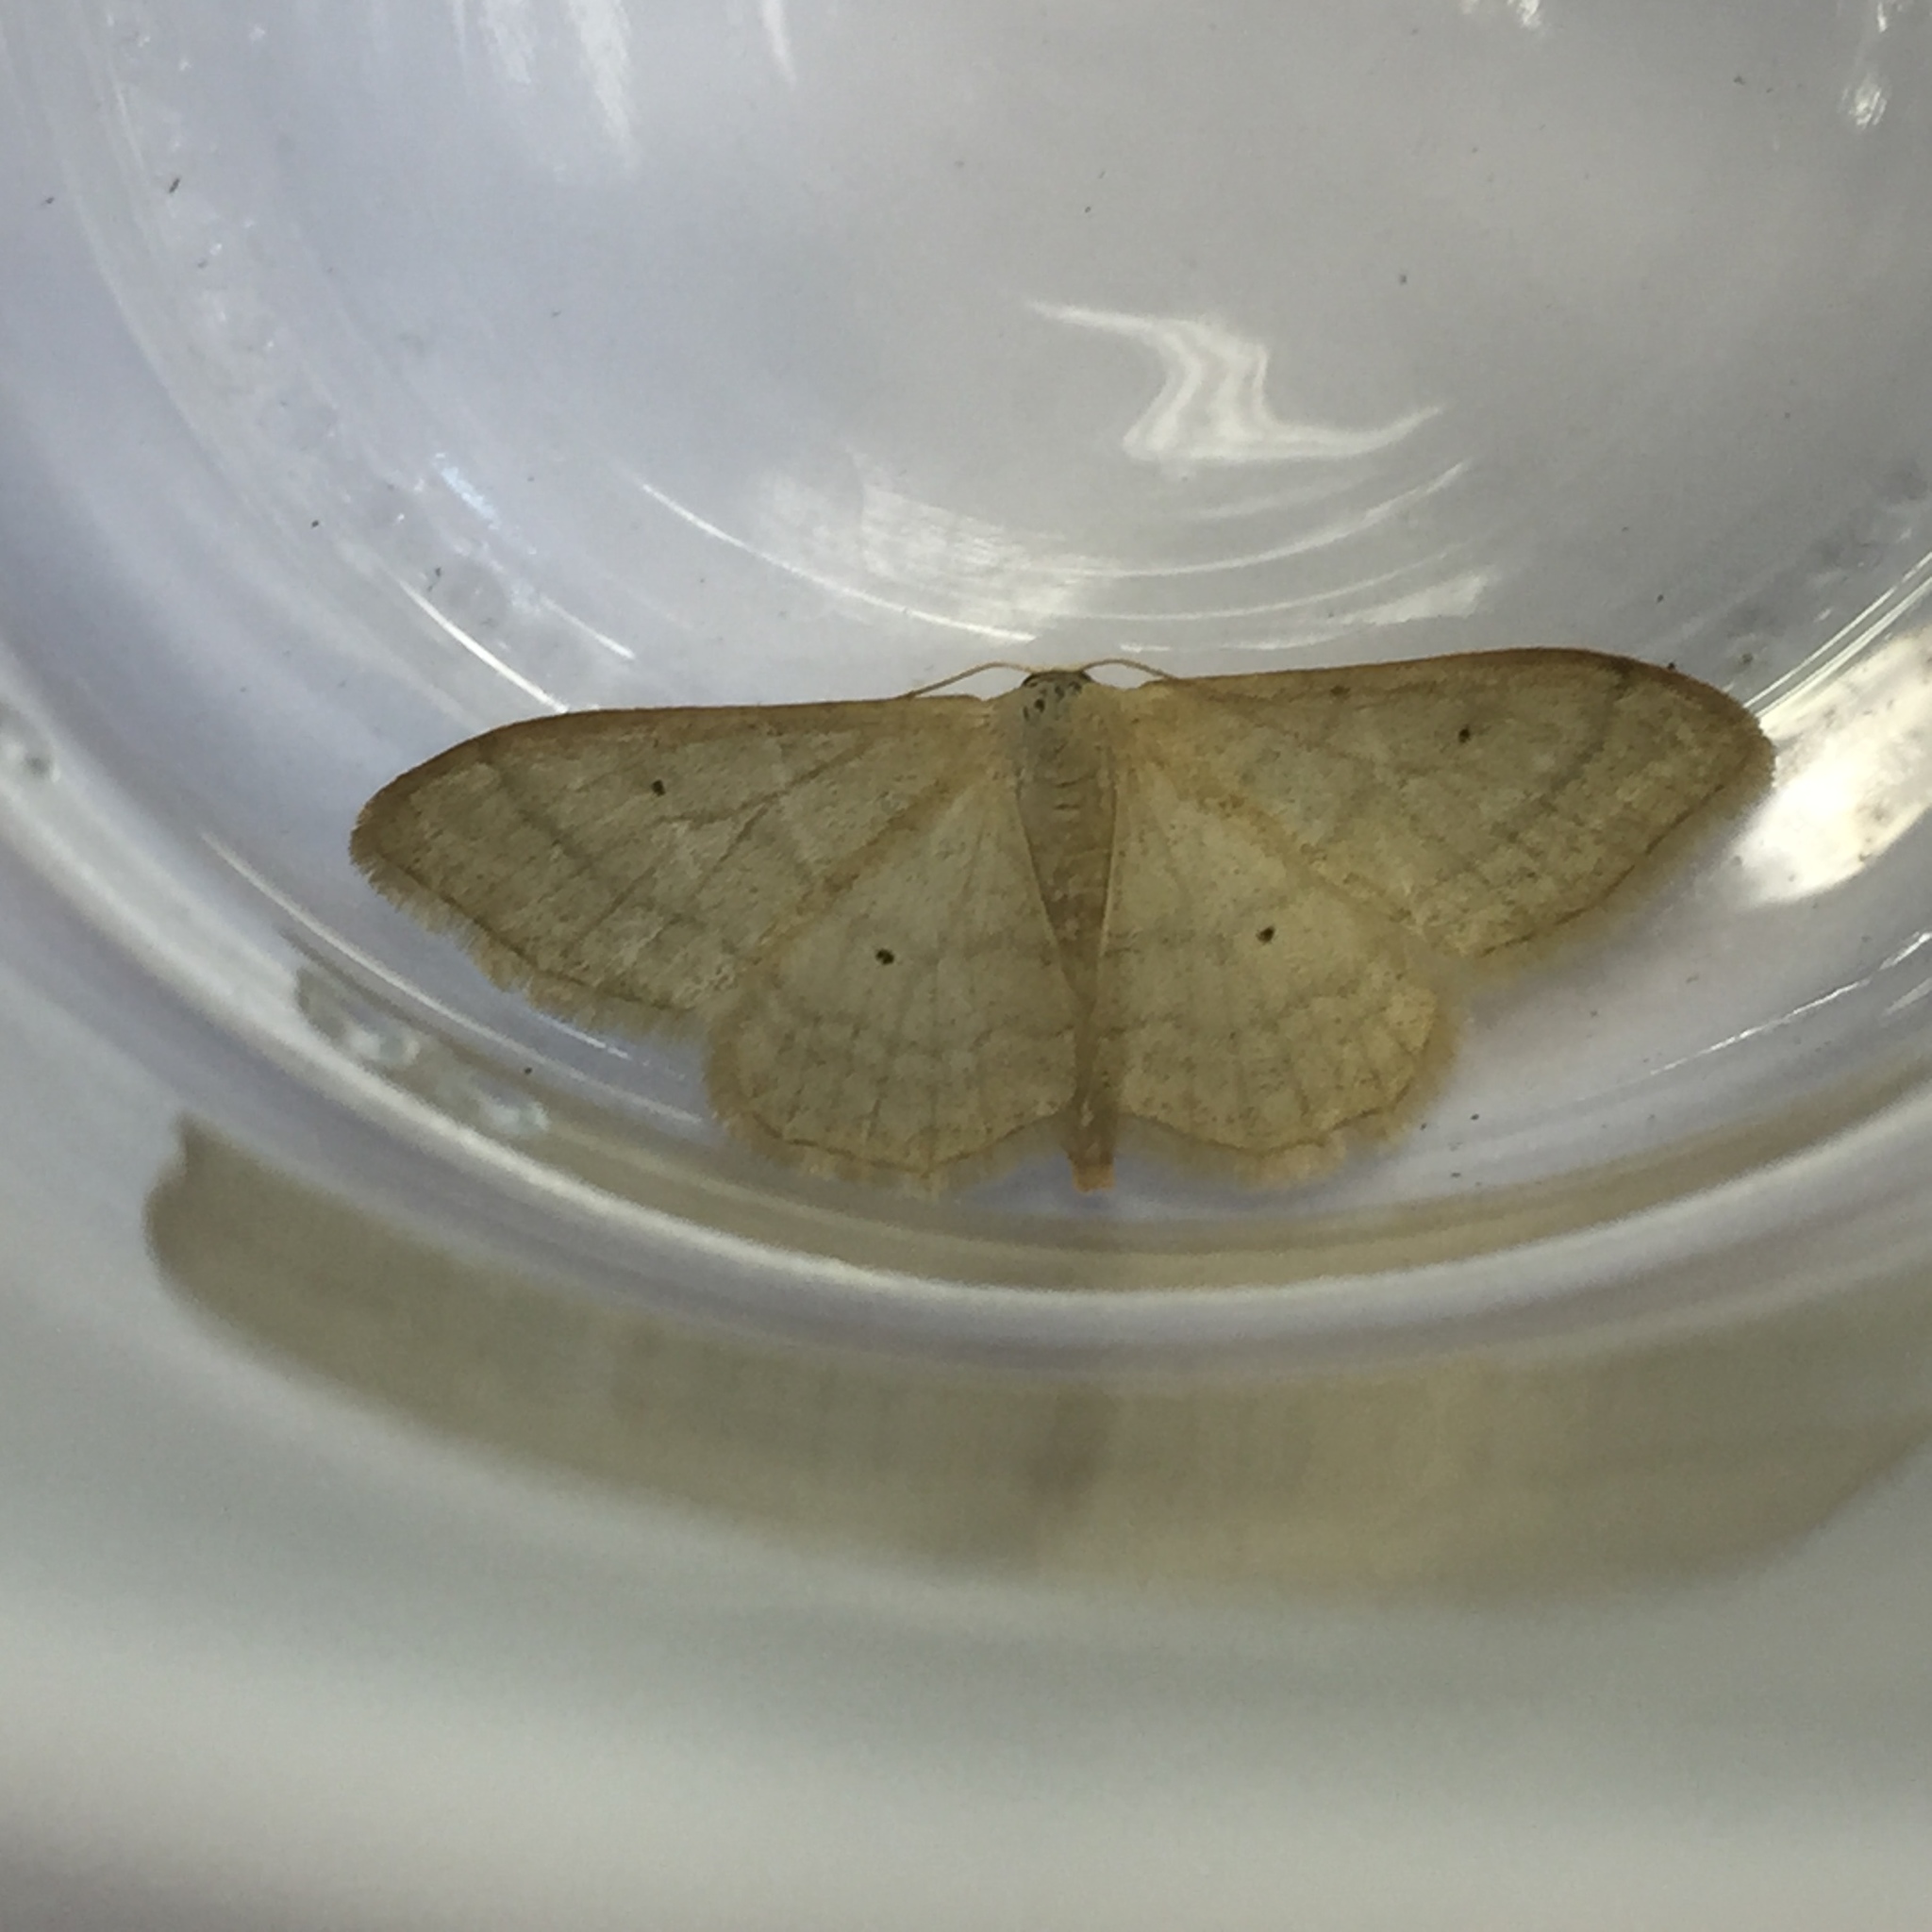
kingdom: Animalia
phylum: Arthropoda
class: Insecta
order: Lepidoptera
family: Geometridae
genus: Idaea
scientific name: Idaea straminata
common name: Plain wave
